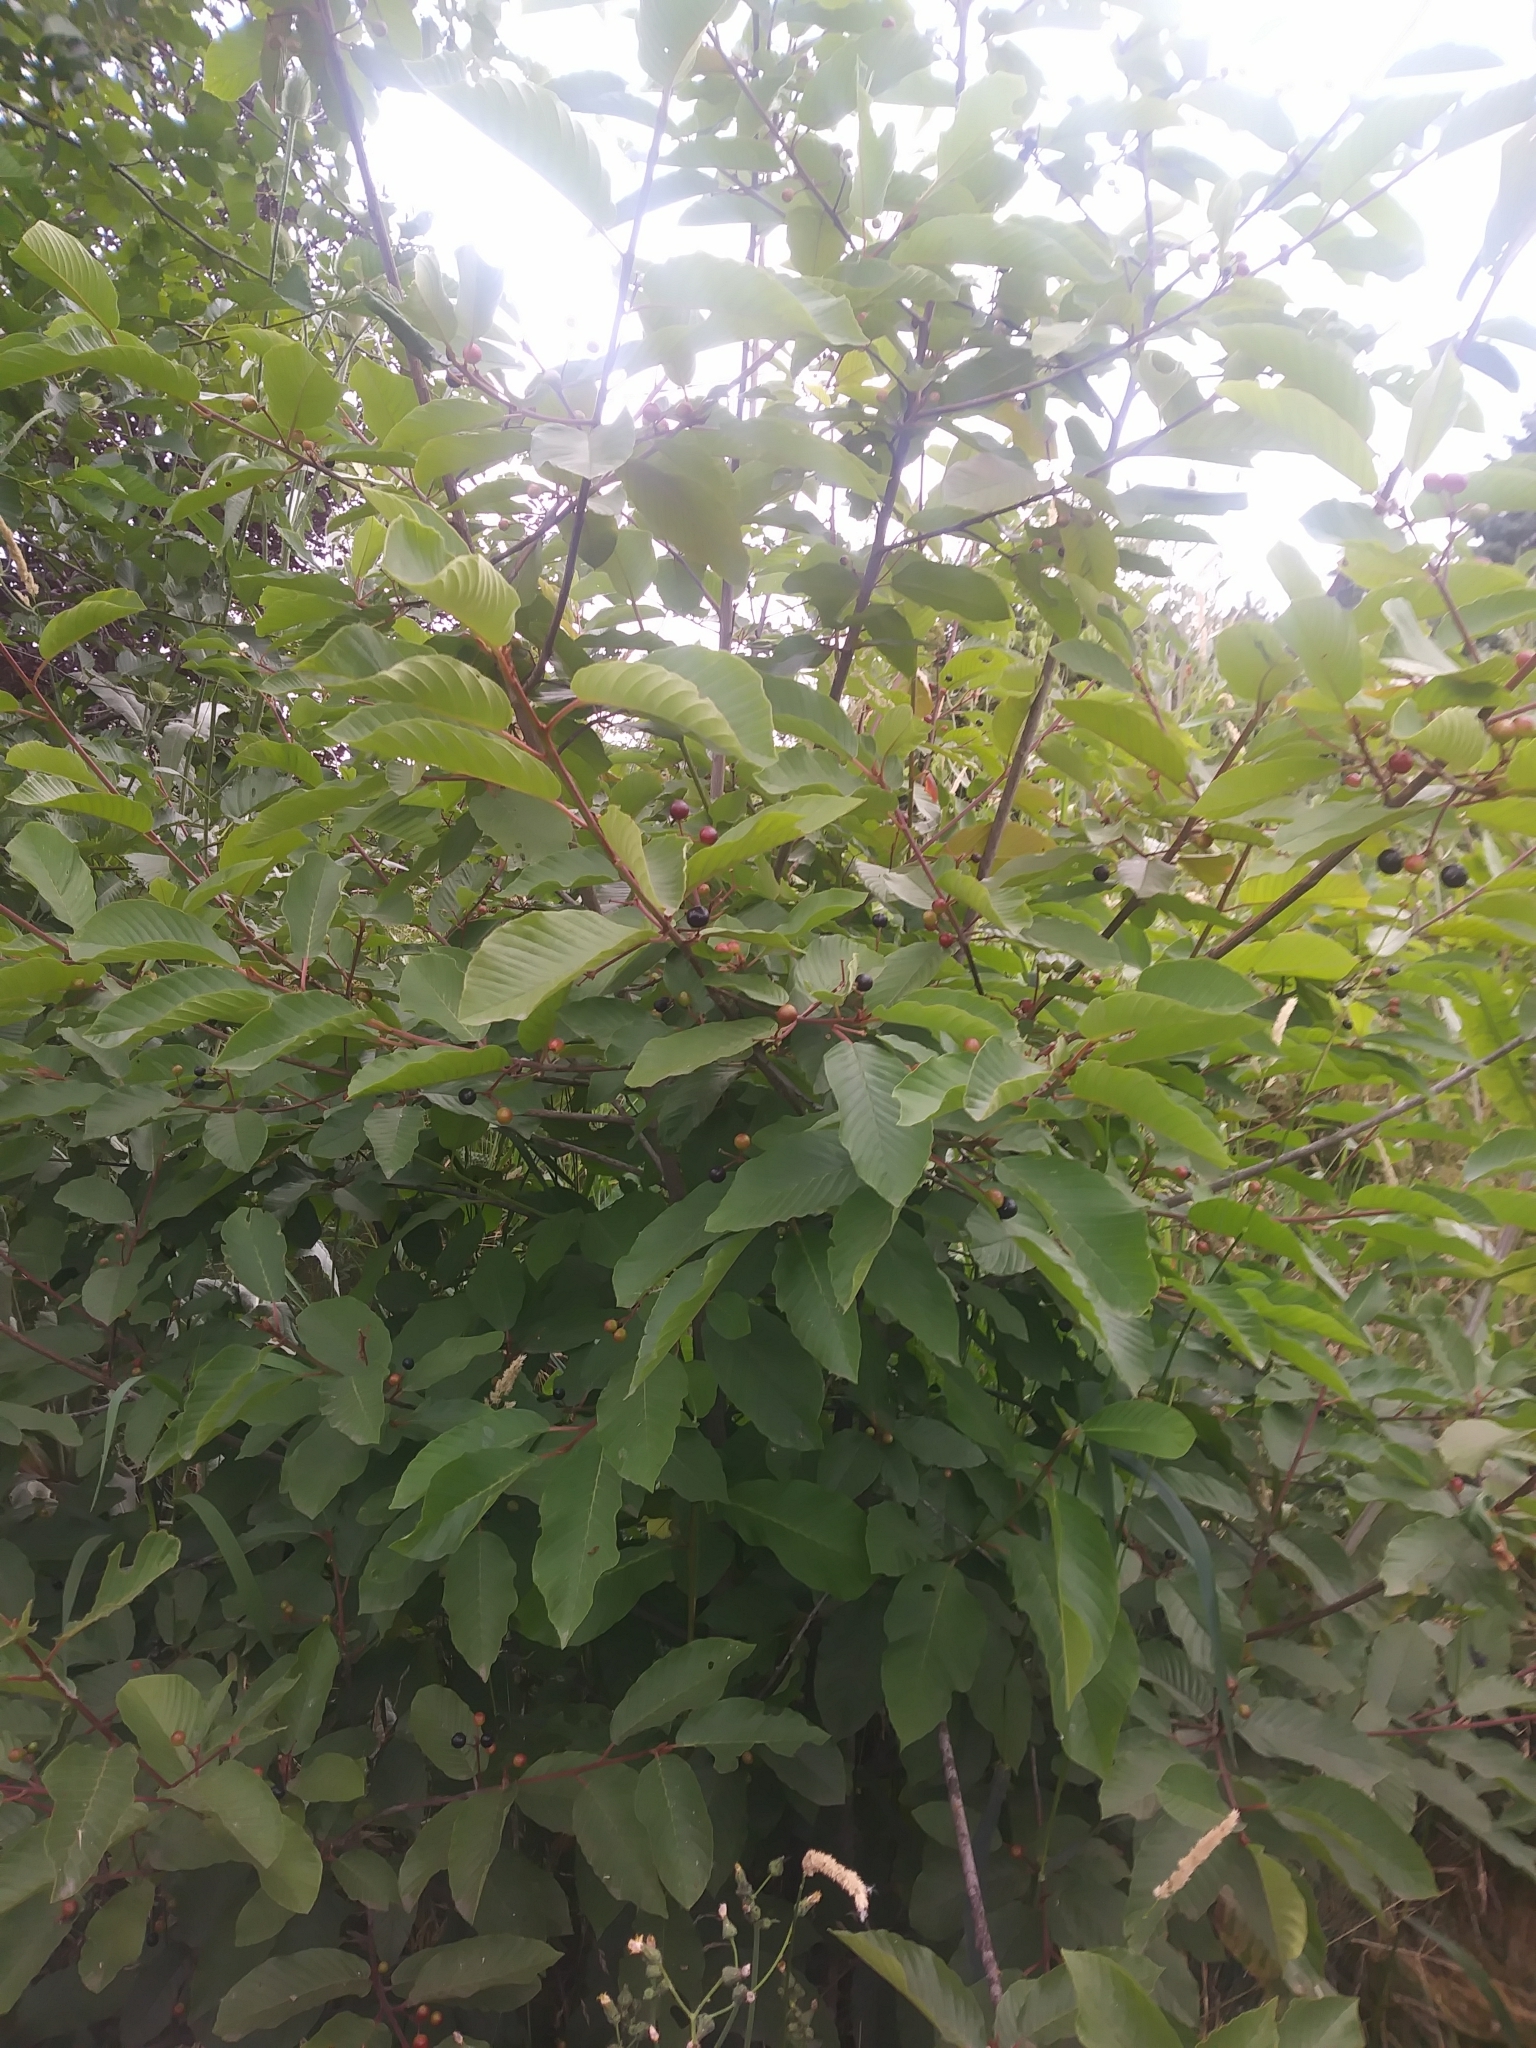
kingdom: Plantae
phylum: Tracheophyta
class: Magnoliopsida
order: Rosales
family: Rhamnaceae
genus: Frangula
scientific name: Frangula purshiana
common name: Cascara buckthorn
